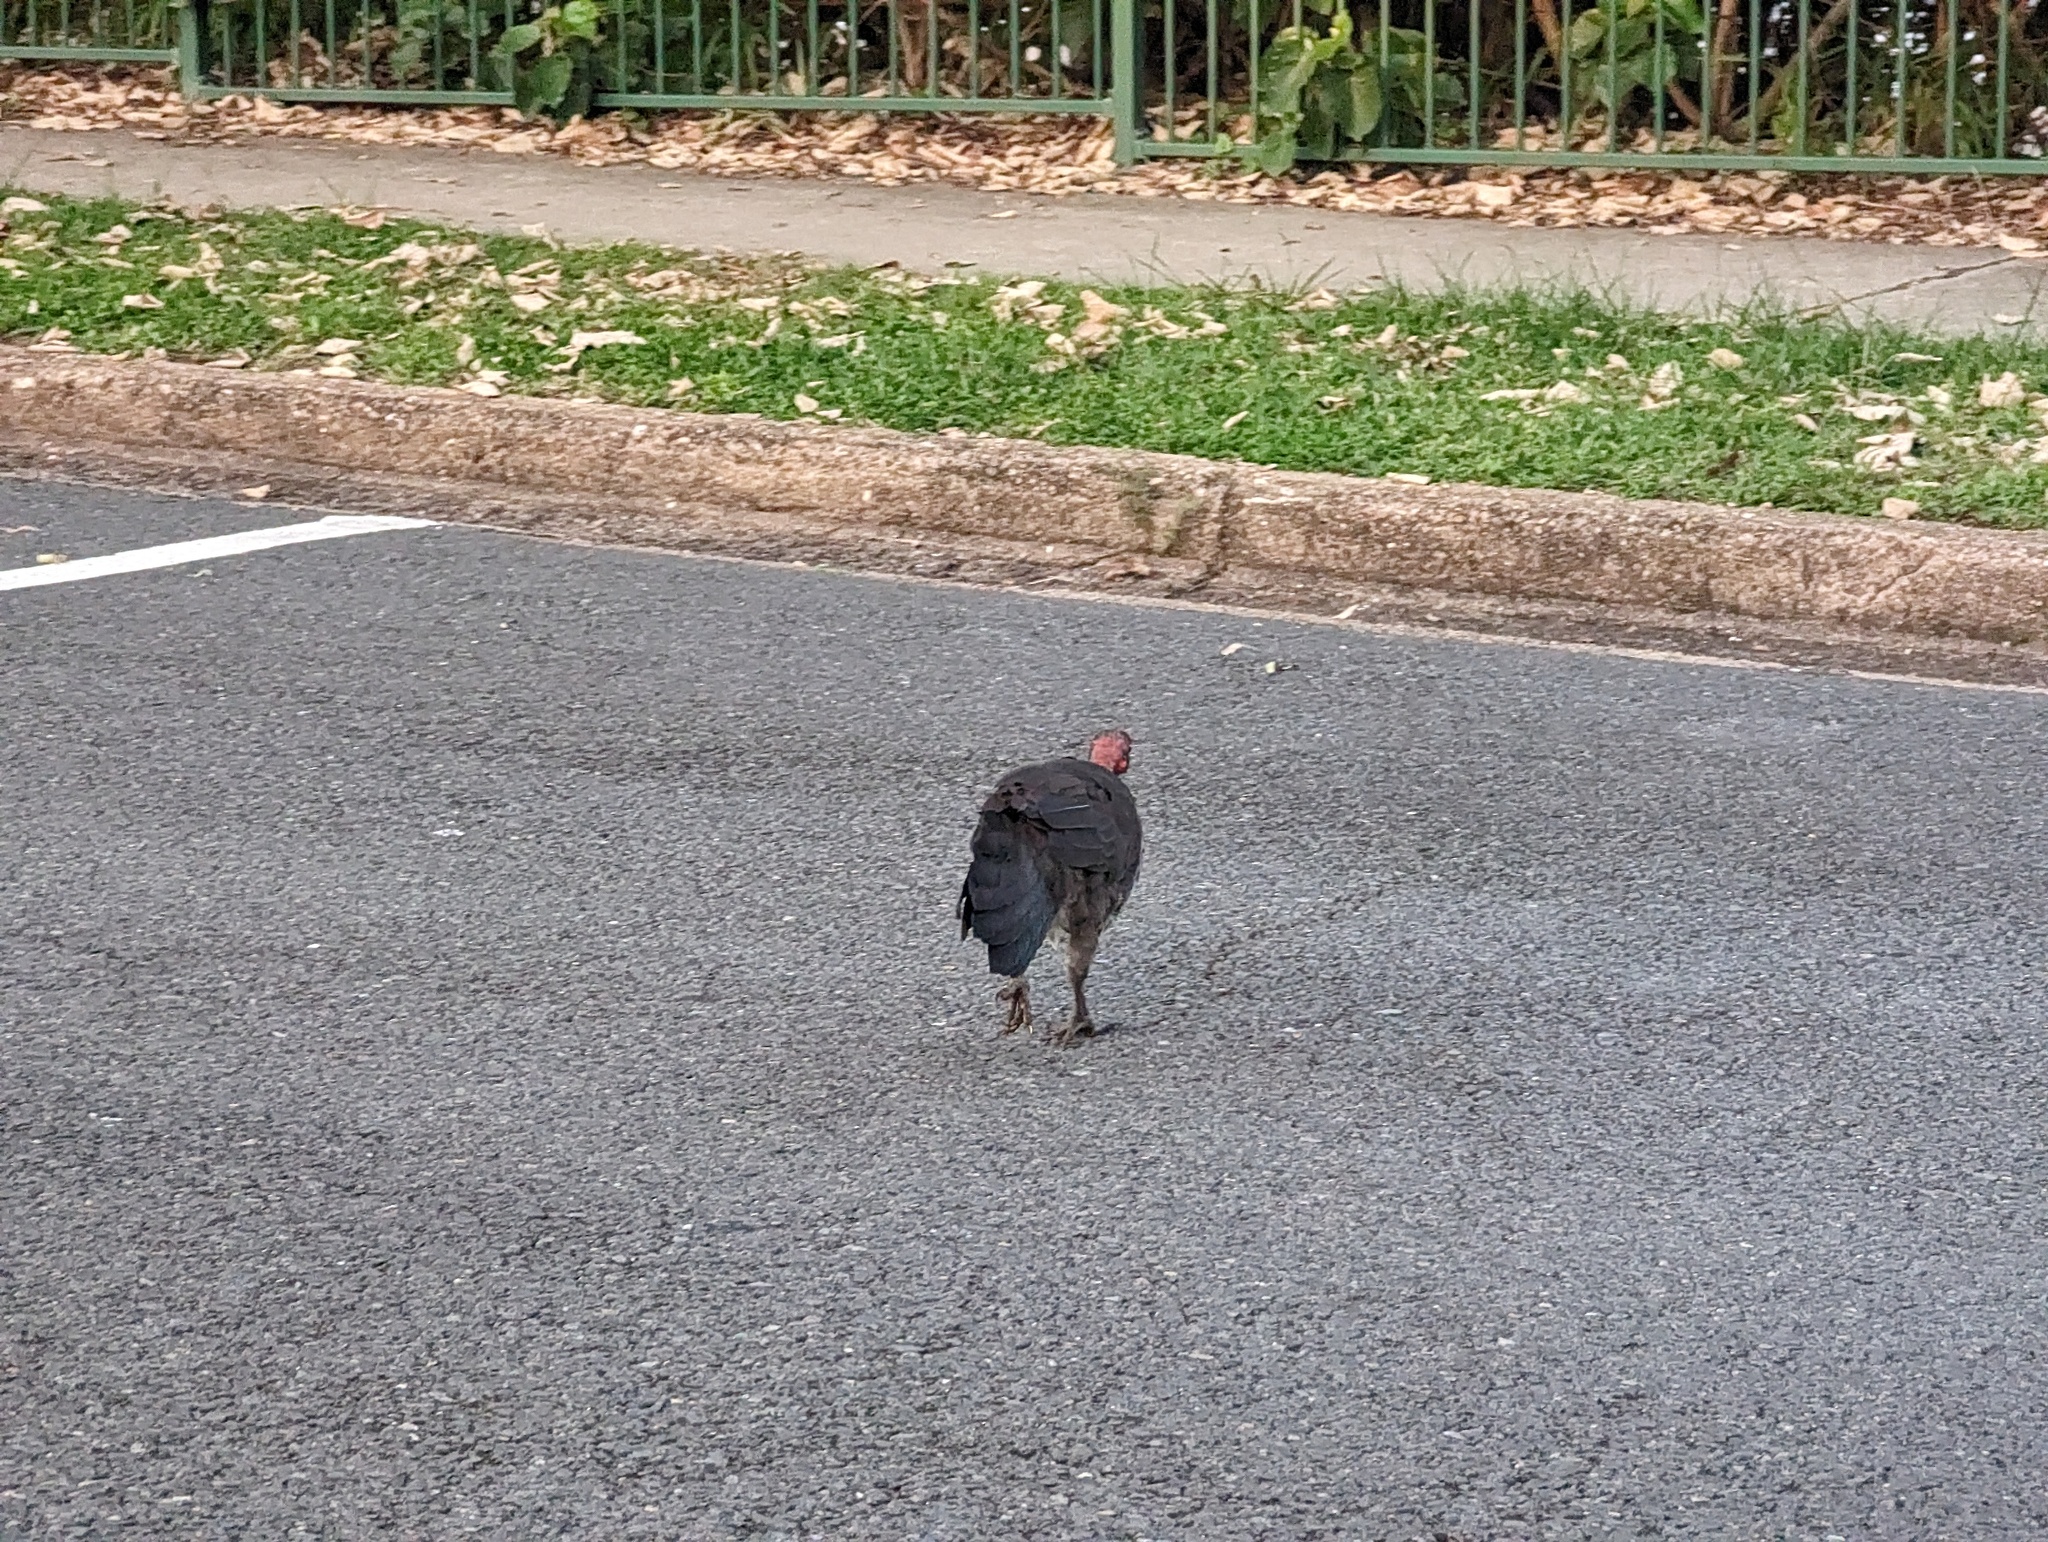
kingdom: Animalia
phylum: Chordata
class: Aves
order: Galliformes
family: Megapodiidae
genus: Alectura
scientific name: Alectura lathami
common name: Australian brushturkey
